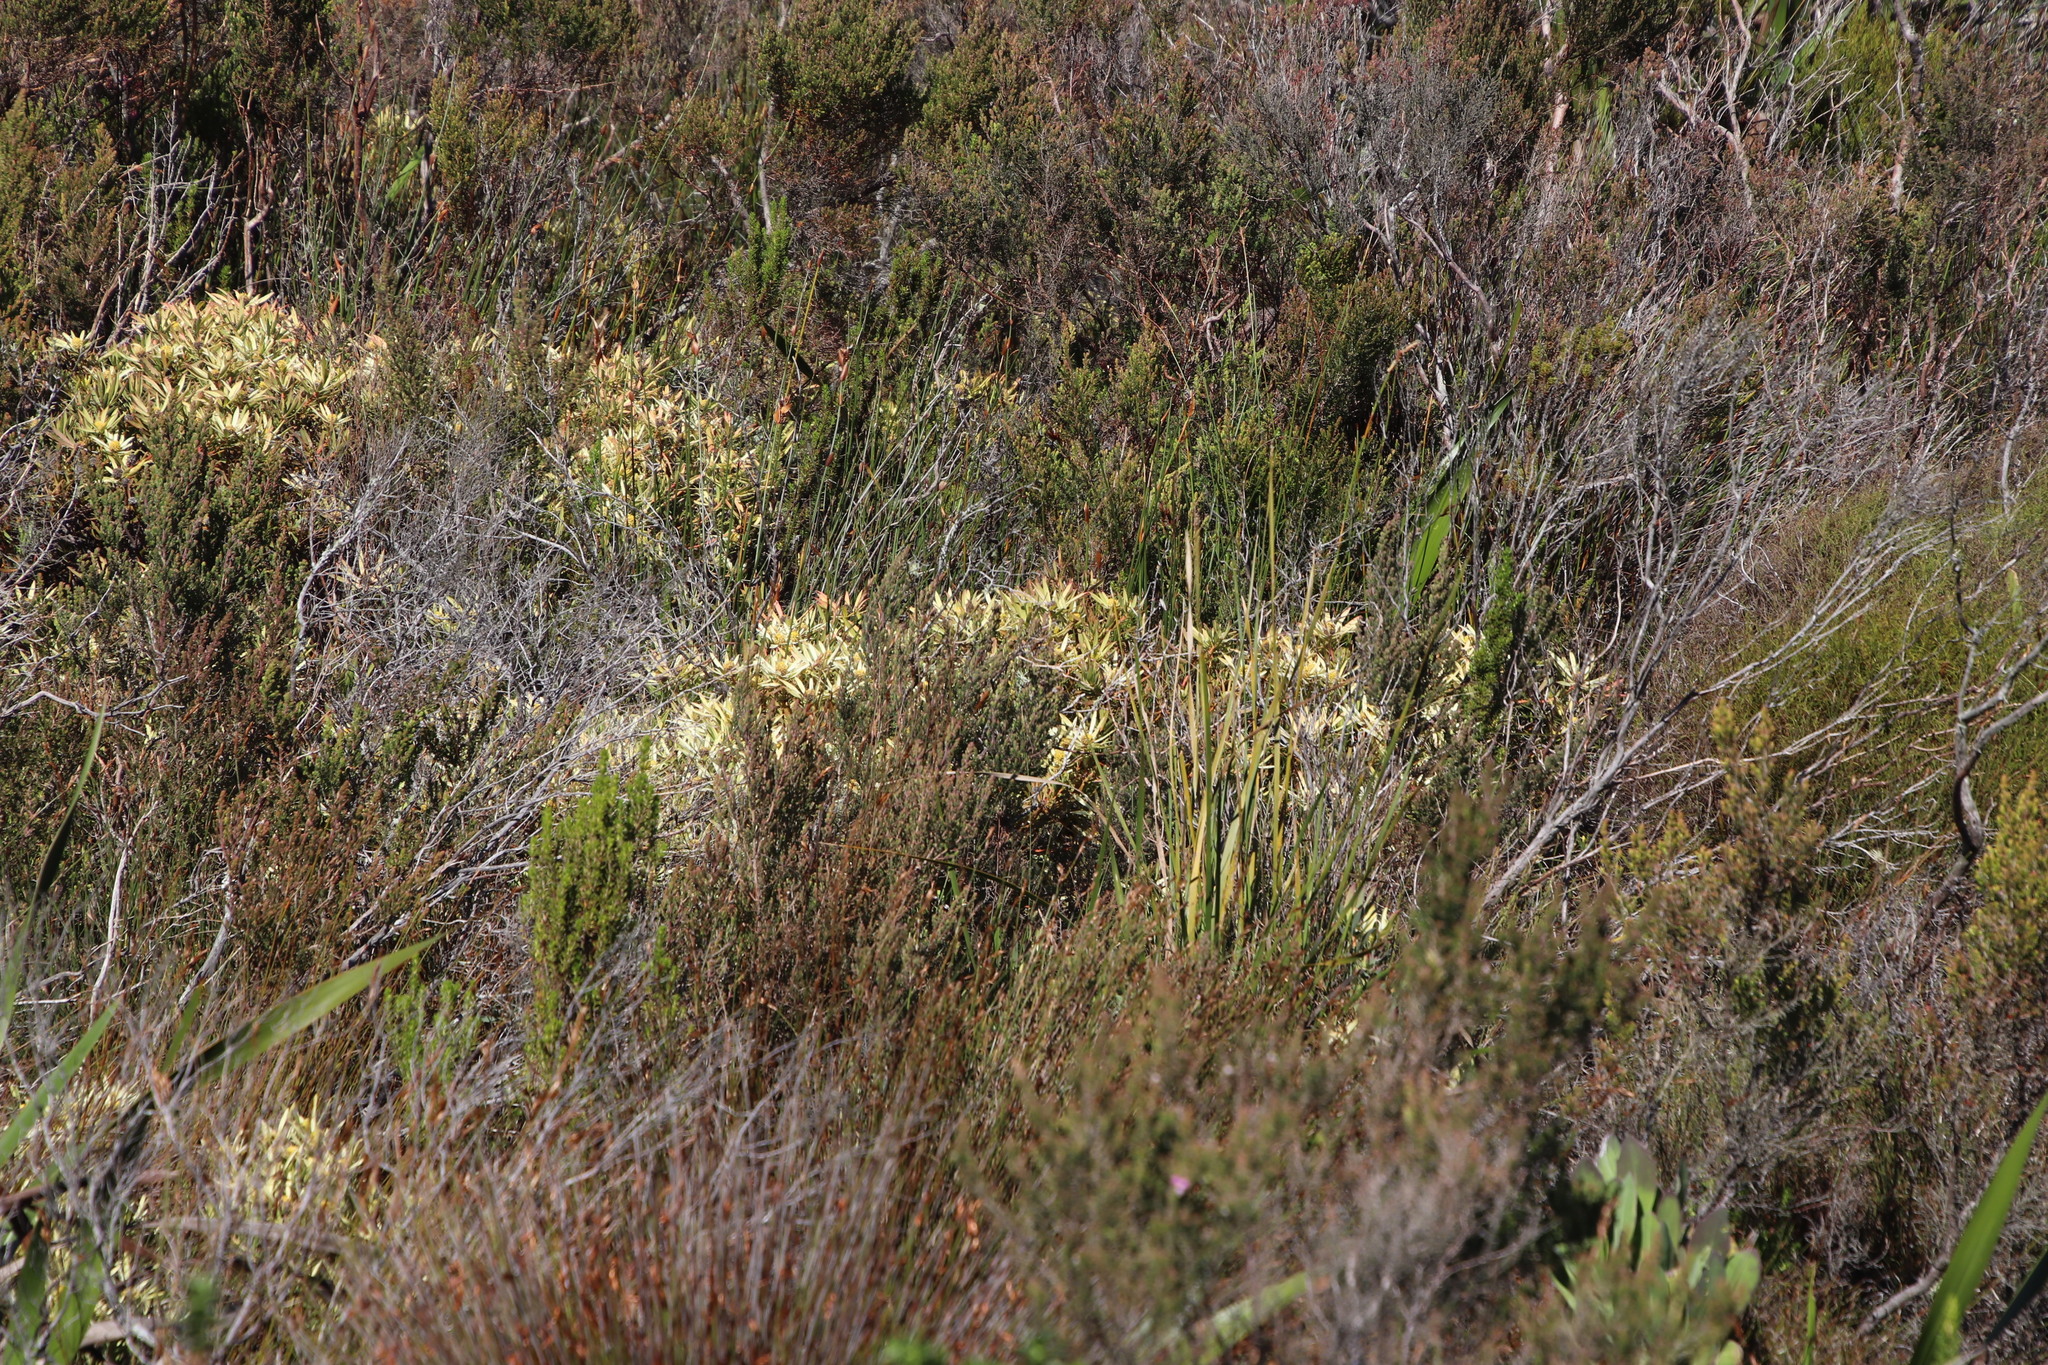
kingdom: Plantae
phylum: Tracheophyta
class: Magnoliopsida
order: Proteales
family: Proteaceae
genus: Leucadendron
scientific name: Leucadendron salignum
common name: Common sunshine conebush
